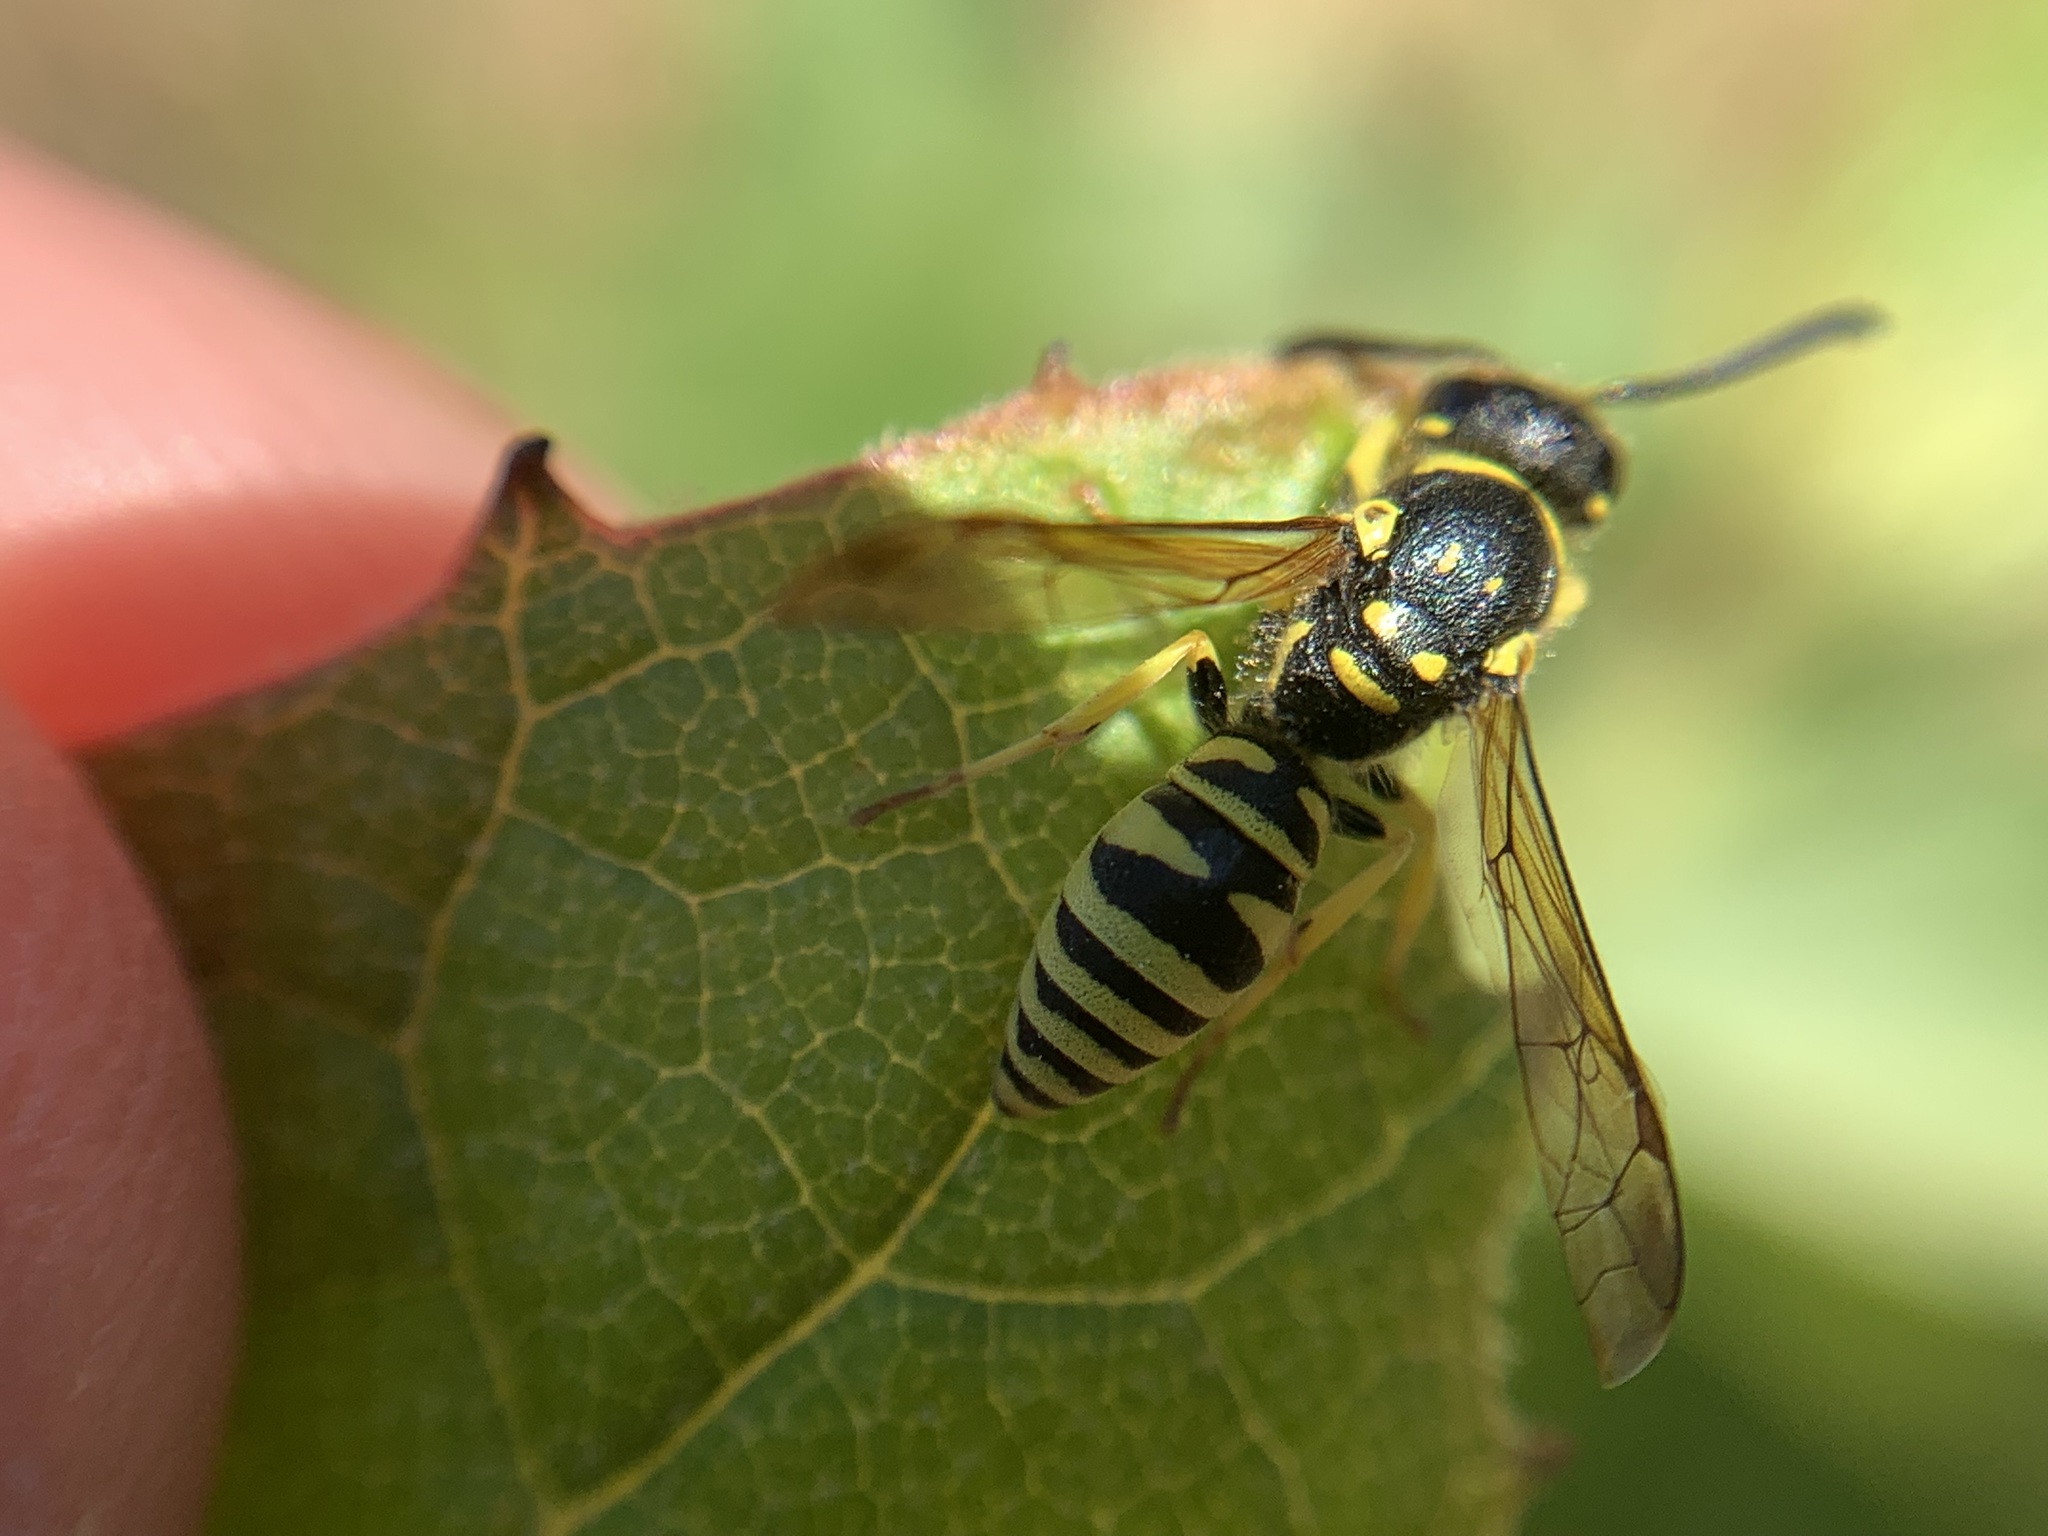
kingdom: Animalia
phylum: Arthropoda
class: Insecta
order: Hymenoptera
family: Vespidae
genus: Ancistrocerus
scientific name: Ancistrocerus adiabatus
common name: Bramble mason wasp
